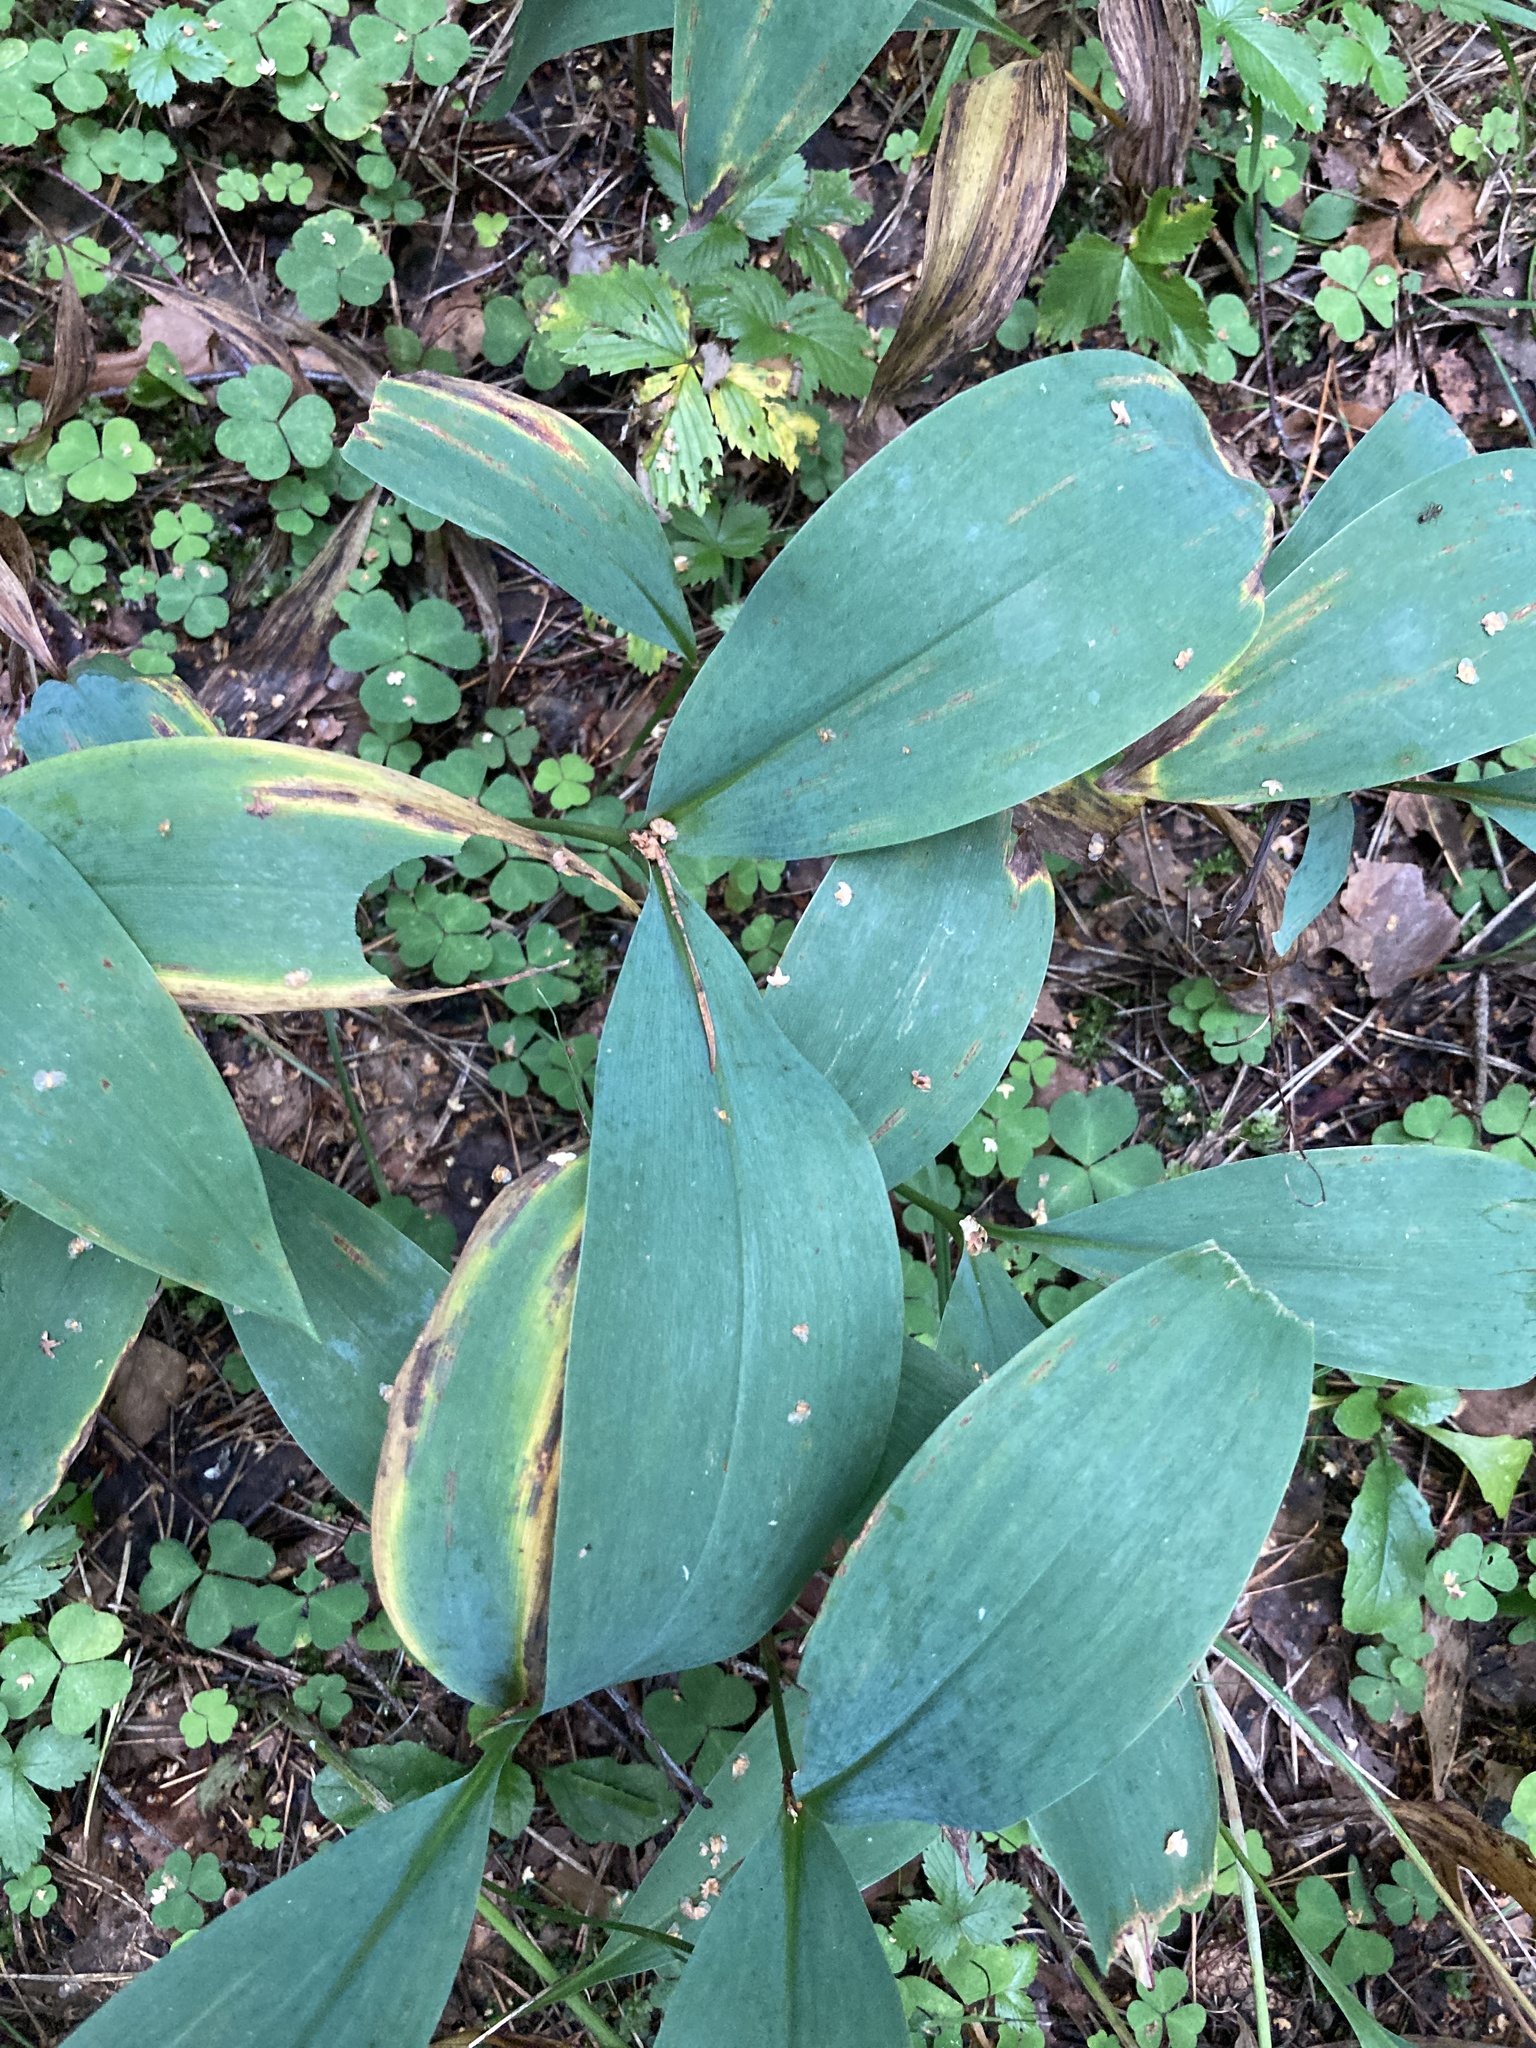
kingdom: Plantae
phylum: Tracheophyta
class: Liliopsida
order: Asparagales
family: Asparagaceae
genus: Convallaria
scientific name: Convallaria majalis
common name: Lily-of-the-valley
